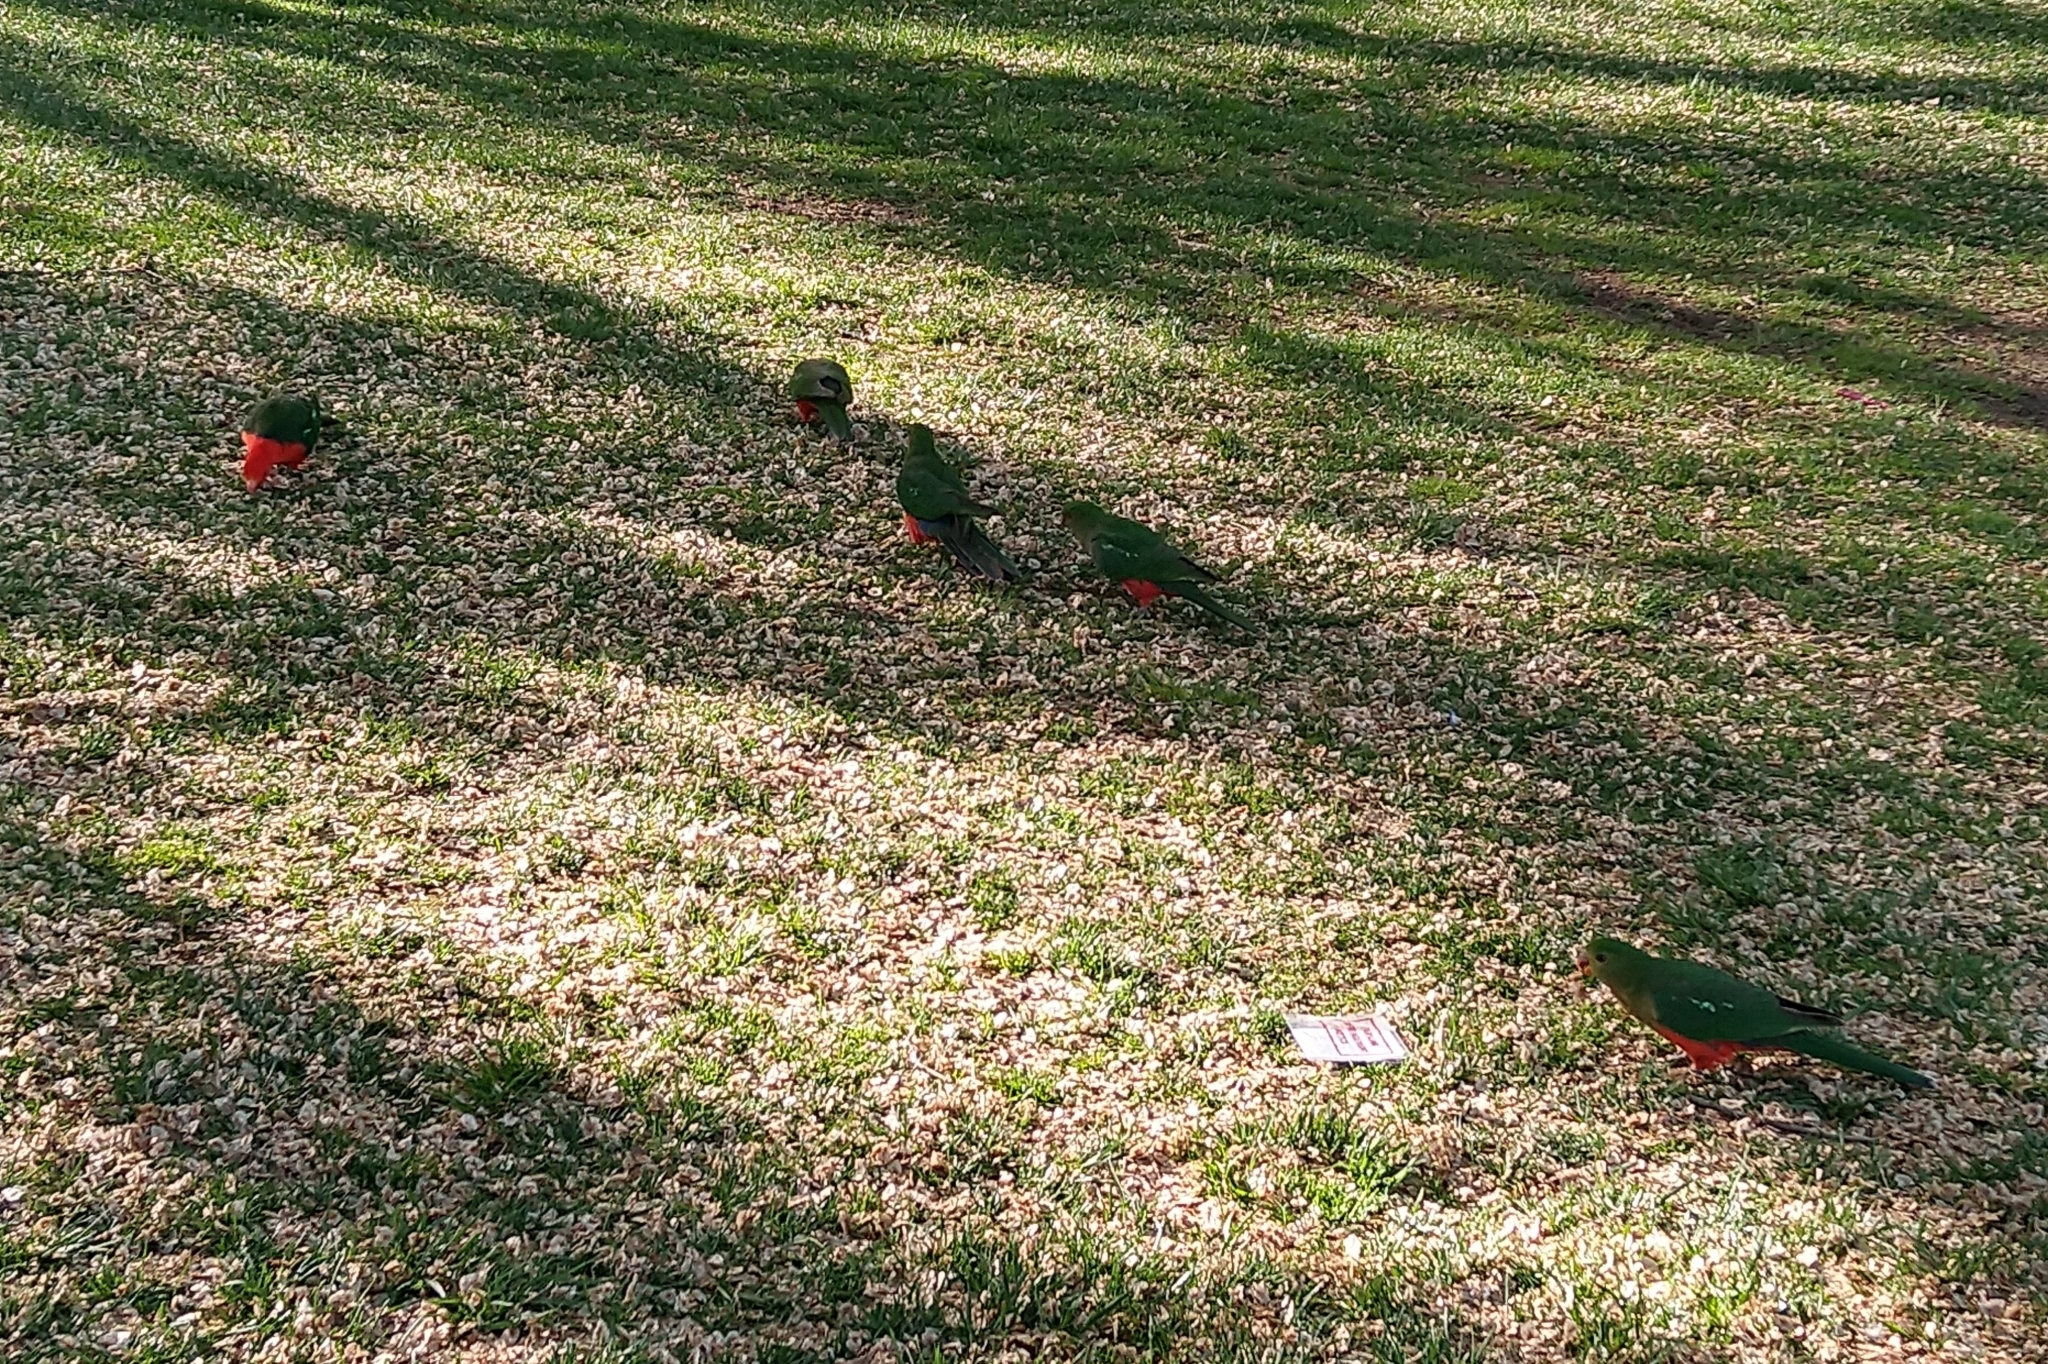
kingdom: Animalia
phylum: Chordata
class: Aves
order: Psittaciformes
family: Psittacidae
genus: Alisterus
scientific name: Alisterus scapularis
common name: Australian king parrot
